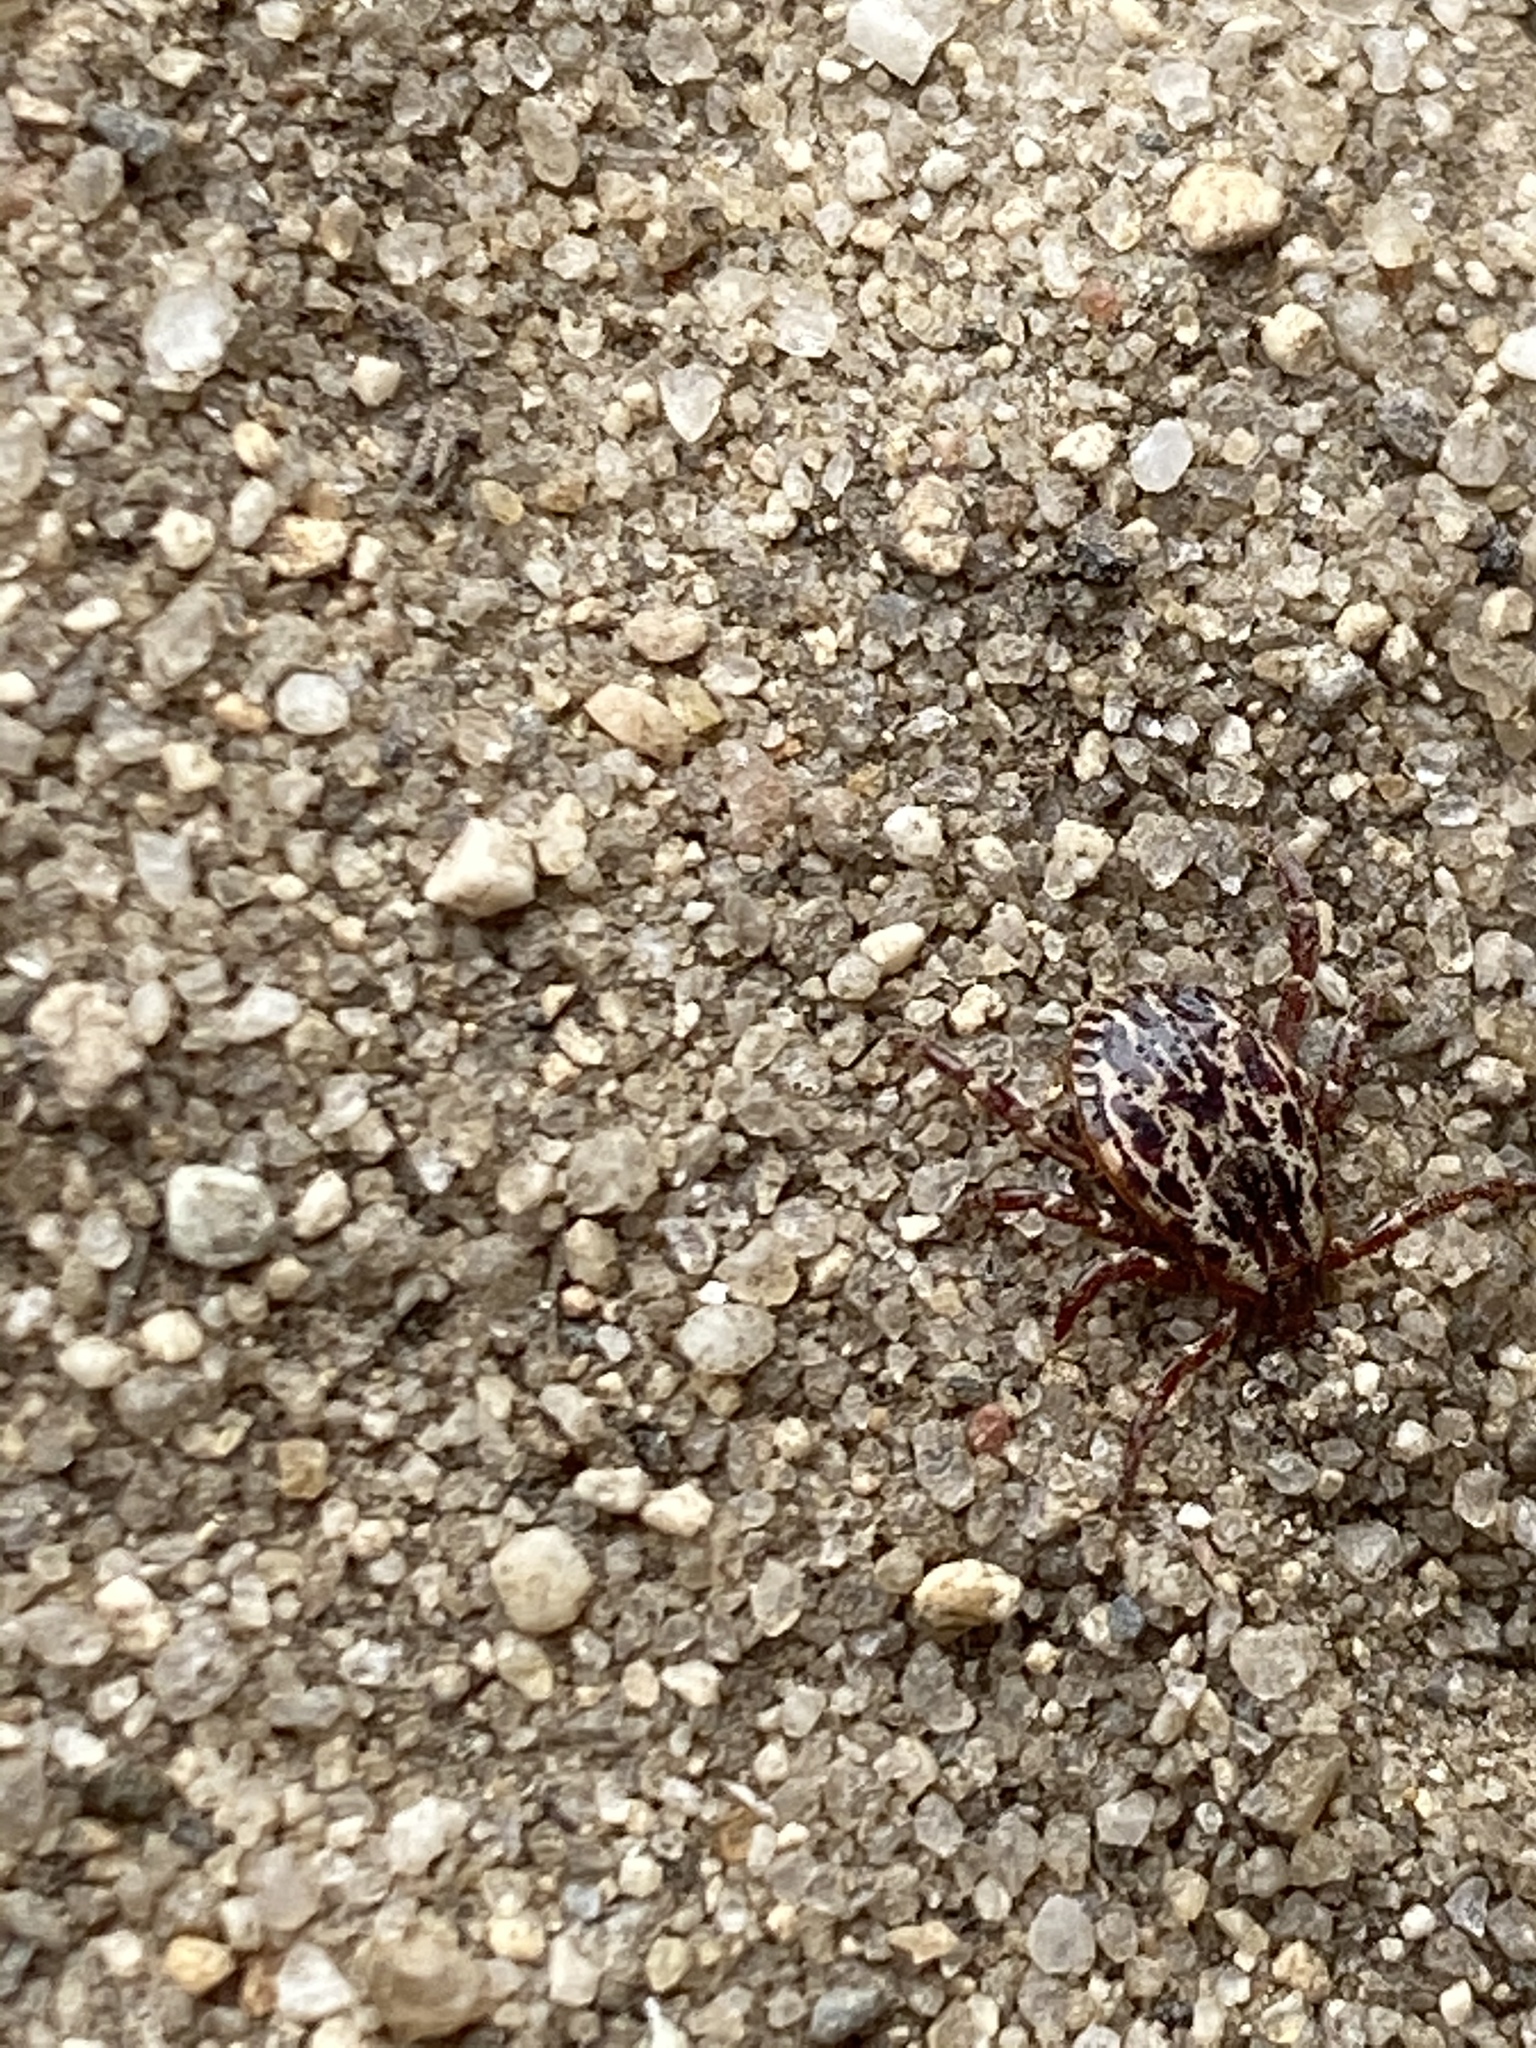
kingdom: Animalia
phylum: Arthropoda
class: Arachnida
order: Ixodida
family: Ixodidae
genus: Dermacentor
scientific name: Dermacentor variabilis
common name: American dog tick
